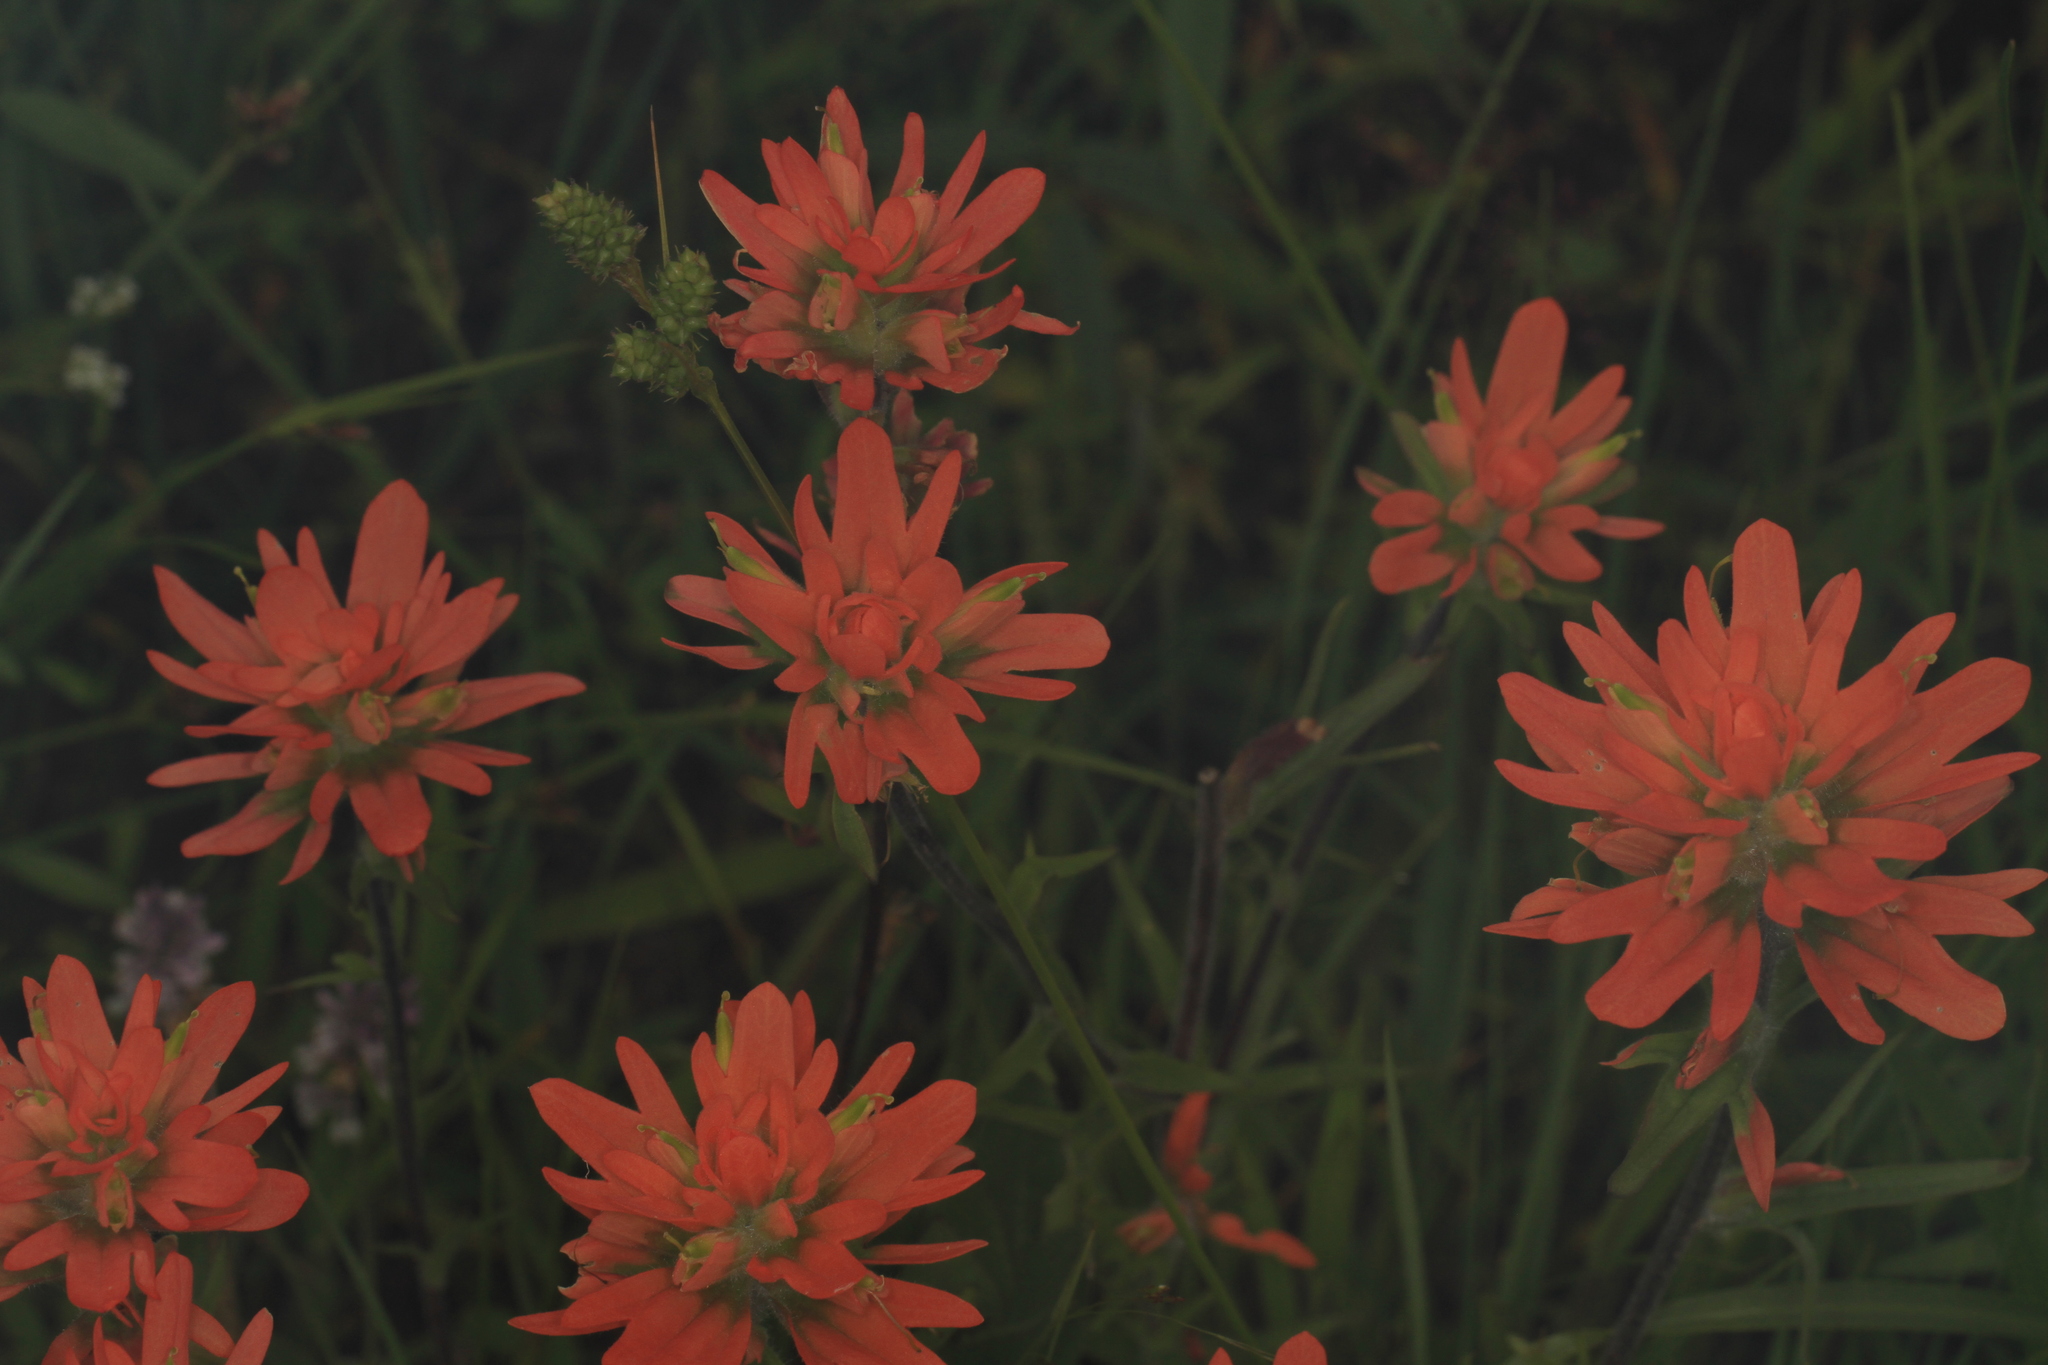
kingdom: Plantae
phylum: Tracheophyta
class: Magnoliopsida
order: Lamiales
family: Orobanchaceae
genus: Castilleja
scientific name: Castilleja coccinea
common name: Scarlet paintbrush
